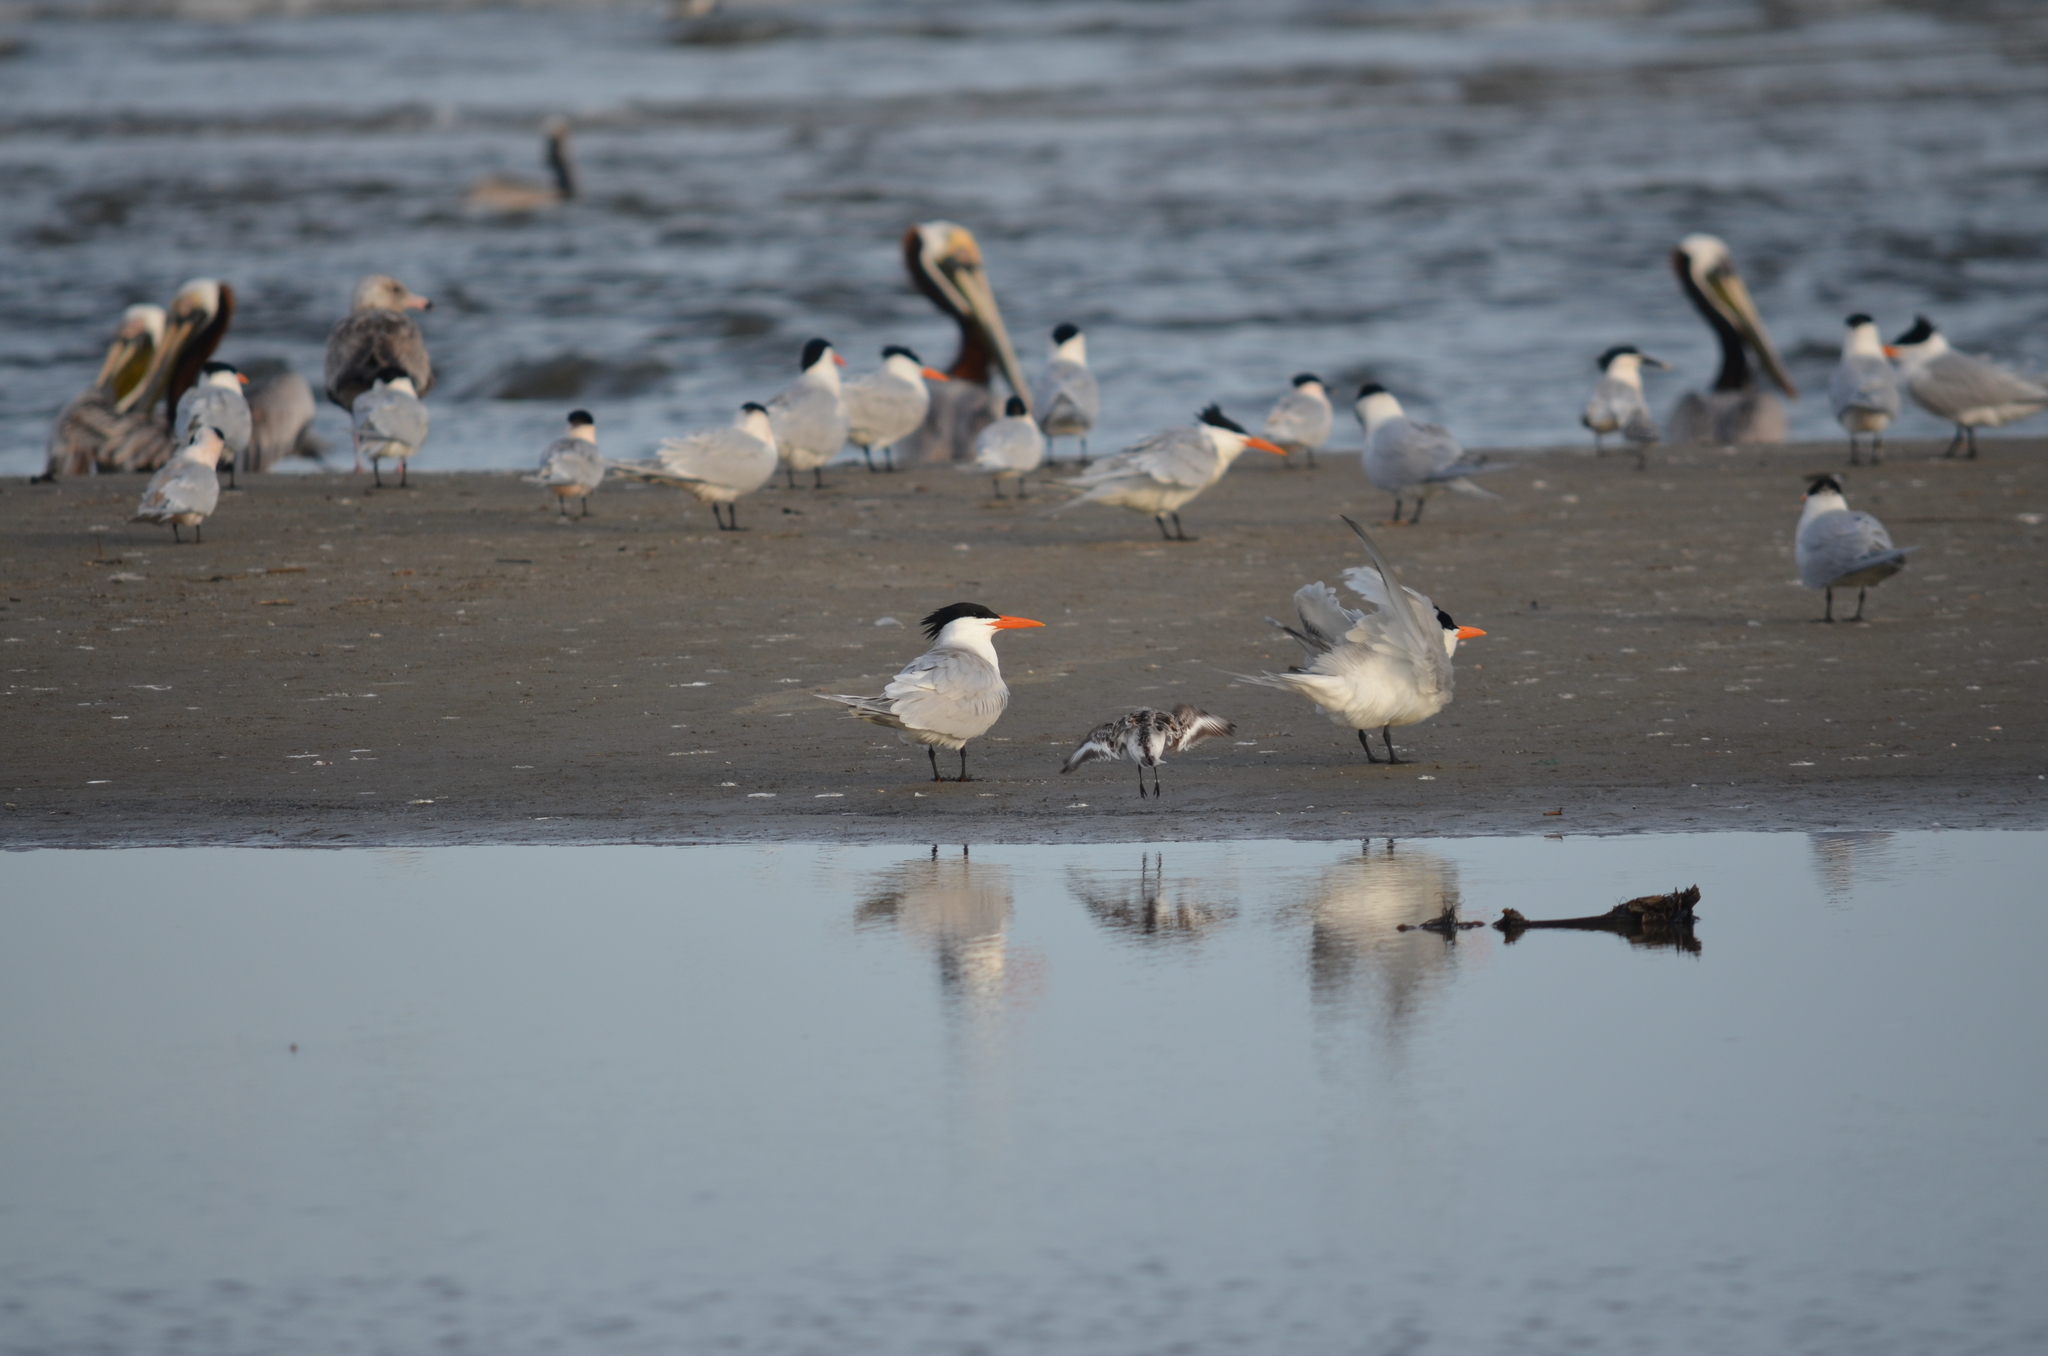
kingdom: Animalia
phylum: Chordata
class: Aves
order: Charadriiformes
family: Laridae
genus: Thalasseus
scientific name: Thalasseus maximus
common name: Royal tern
